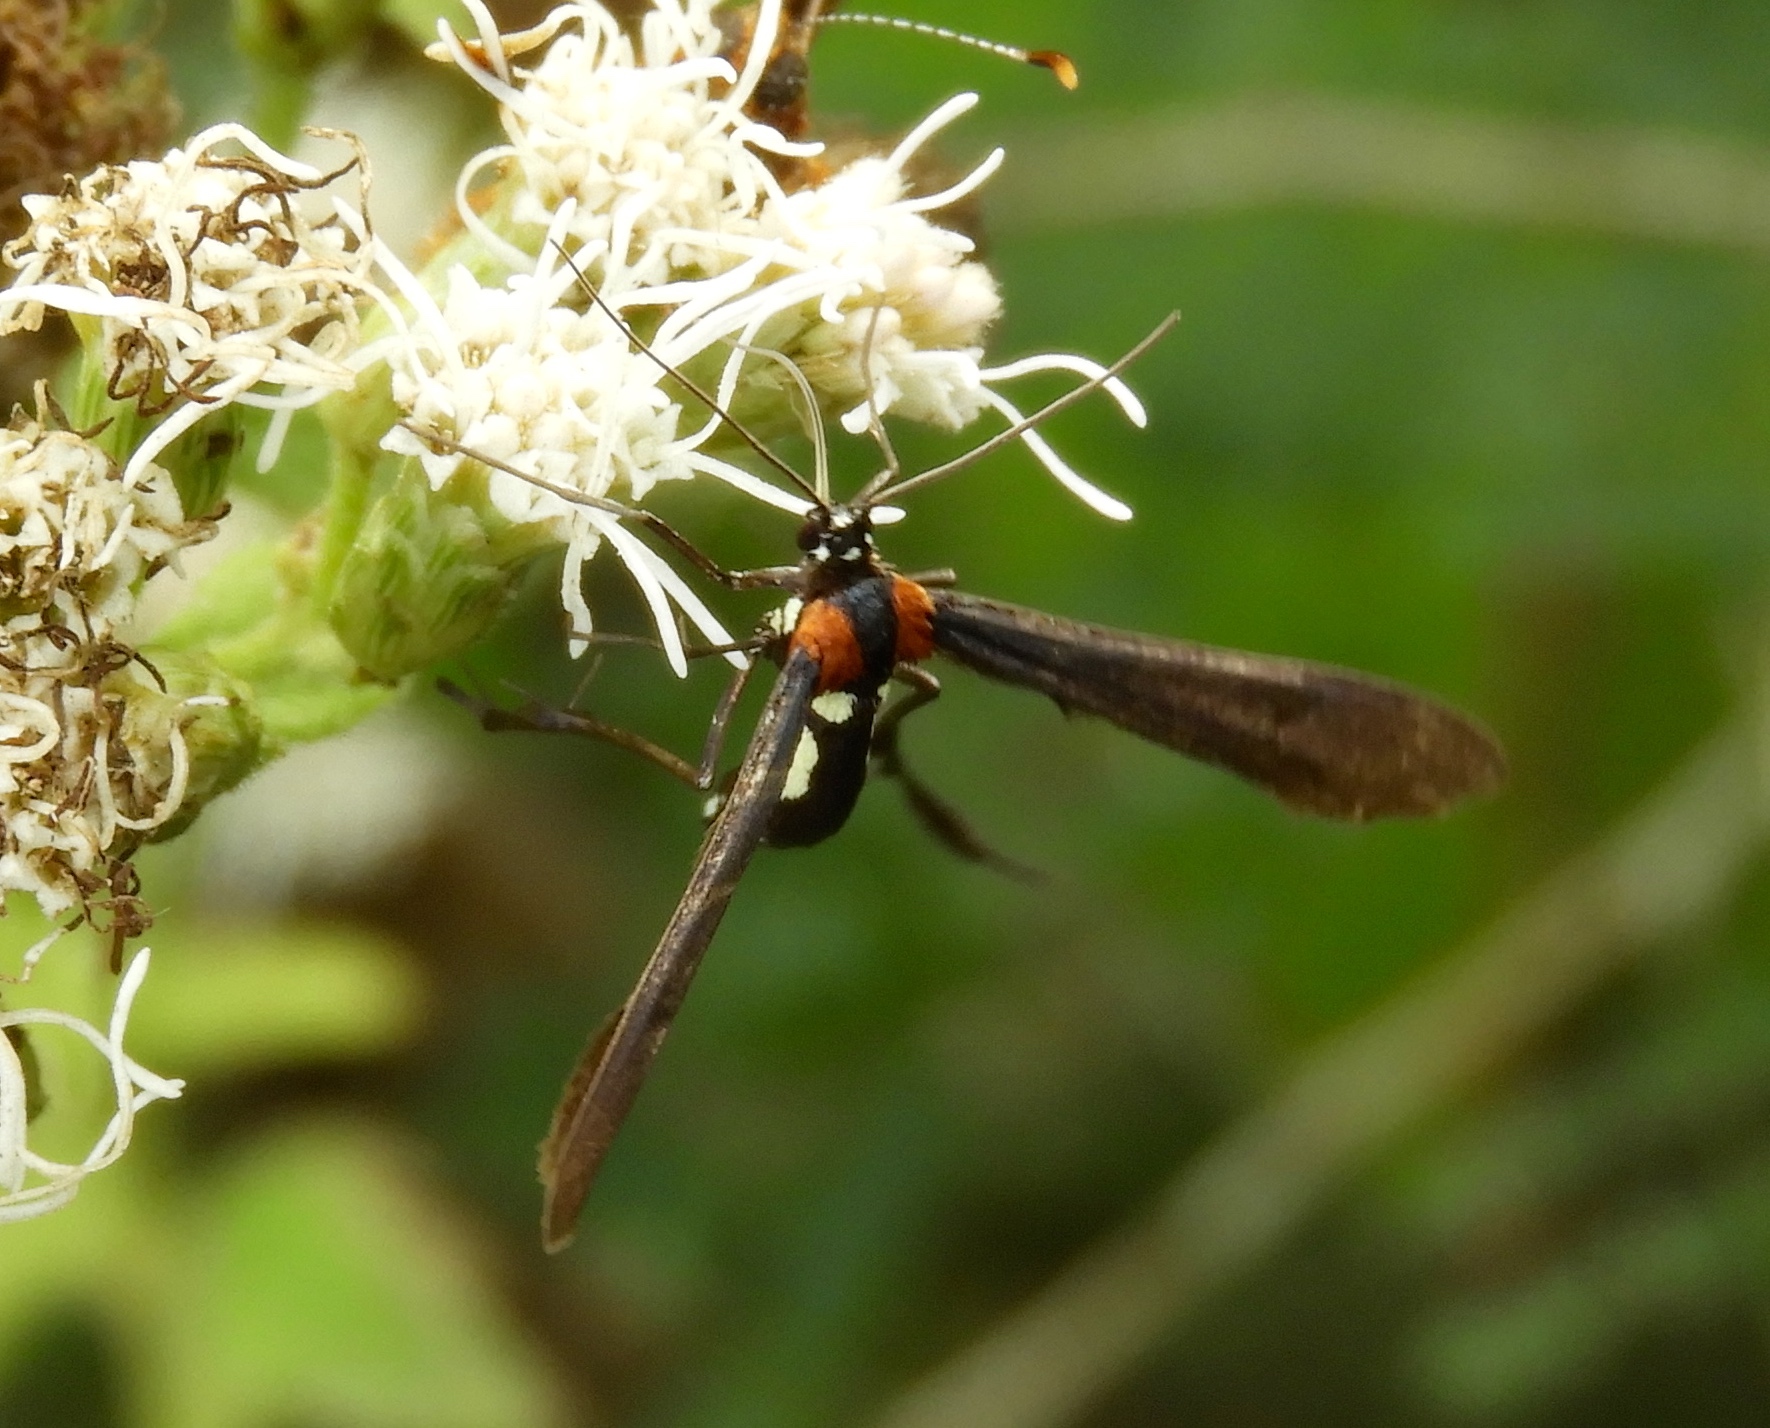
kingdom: Animalia
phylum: Arthropoda
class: Insecta
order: Lepidoptera
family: Pterophoridae
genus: Hellinsia
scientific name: Hellinsia chamelai
